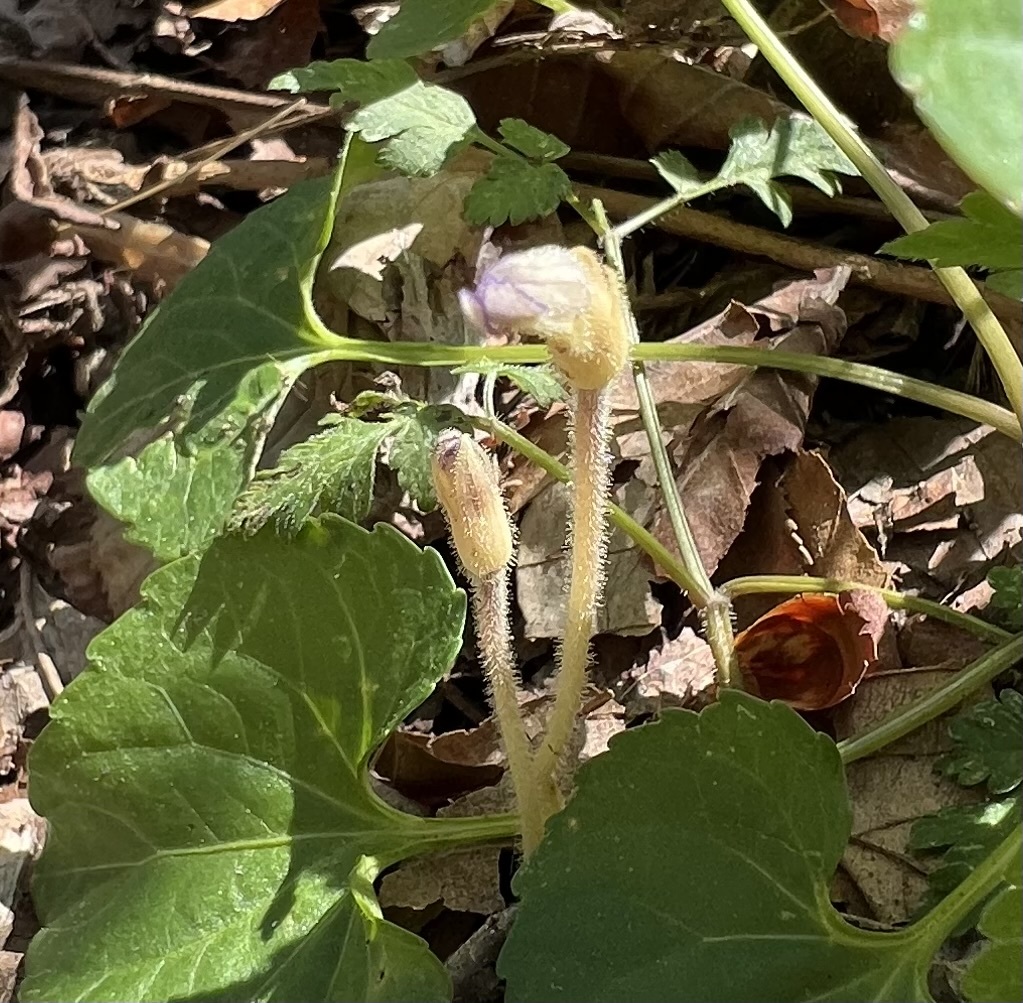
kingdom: Plantae
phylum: Tracheophyta
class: Magnoliopsida
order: Lamiales
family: Orobanchaceae
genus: Aphyllon
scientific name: Aphyllon uniflorum
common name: One-flowered broomrape
